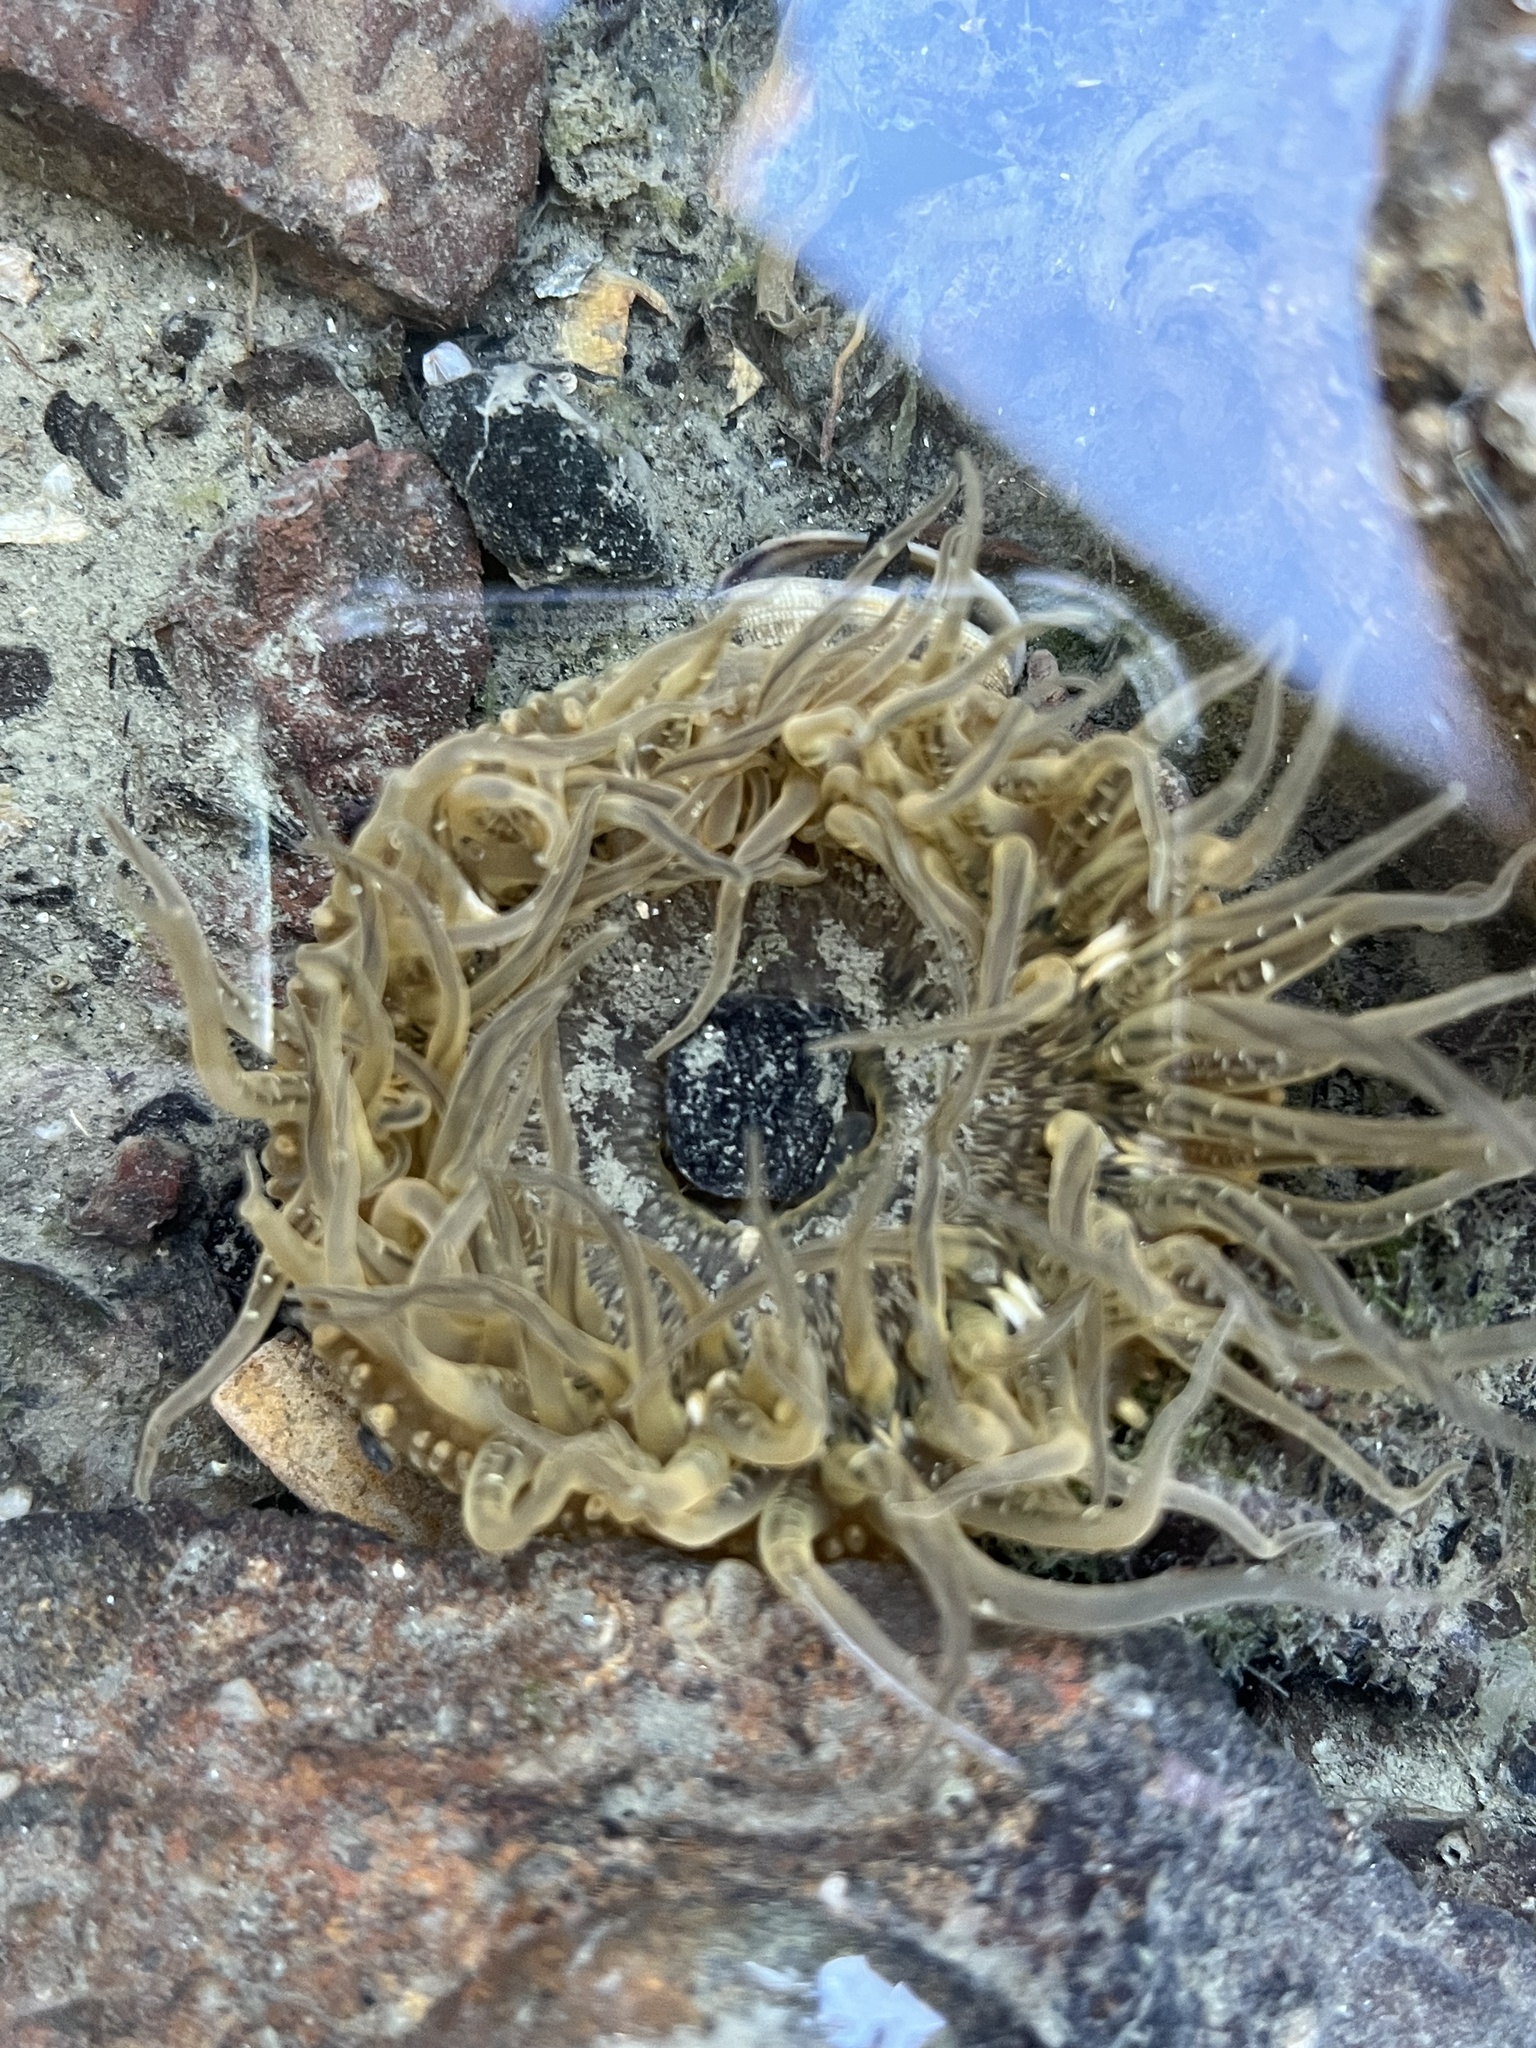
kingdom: Animalia
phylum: Cnidaria
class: Anthozoa
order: Actiniaria
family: Actiniidae
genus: Anthopleura
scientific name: Anthopleura artemisia
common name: Buried sea anemone
